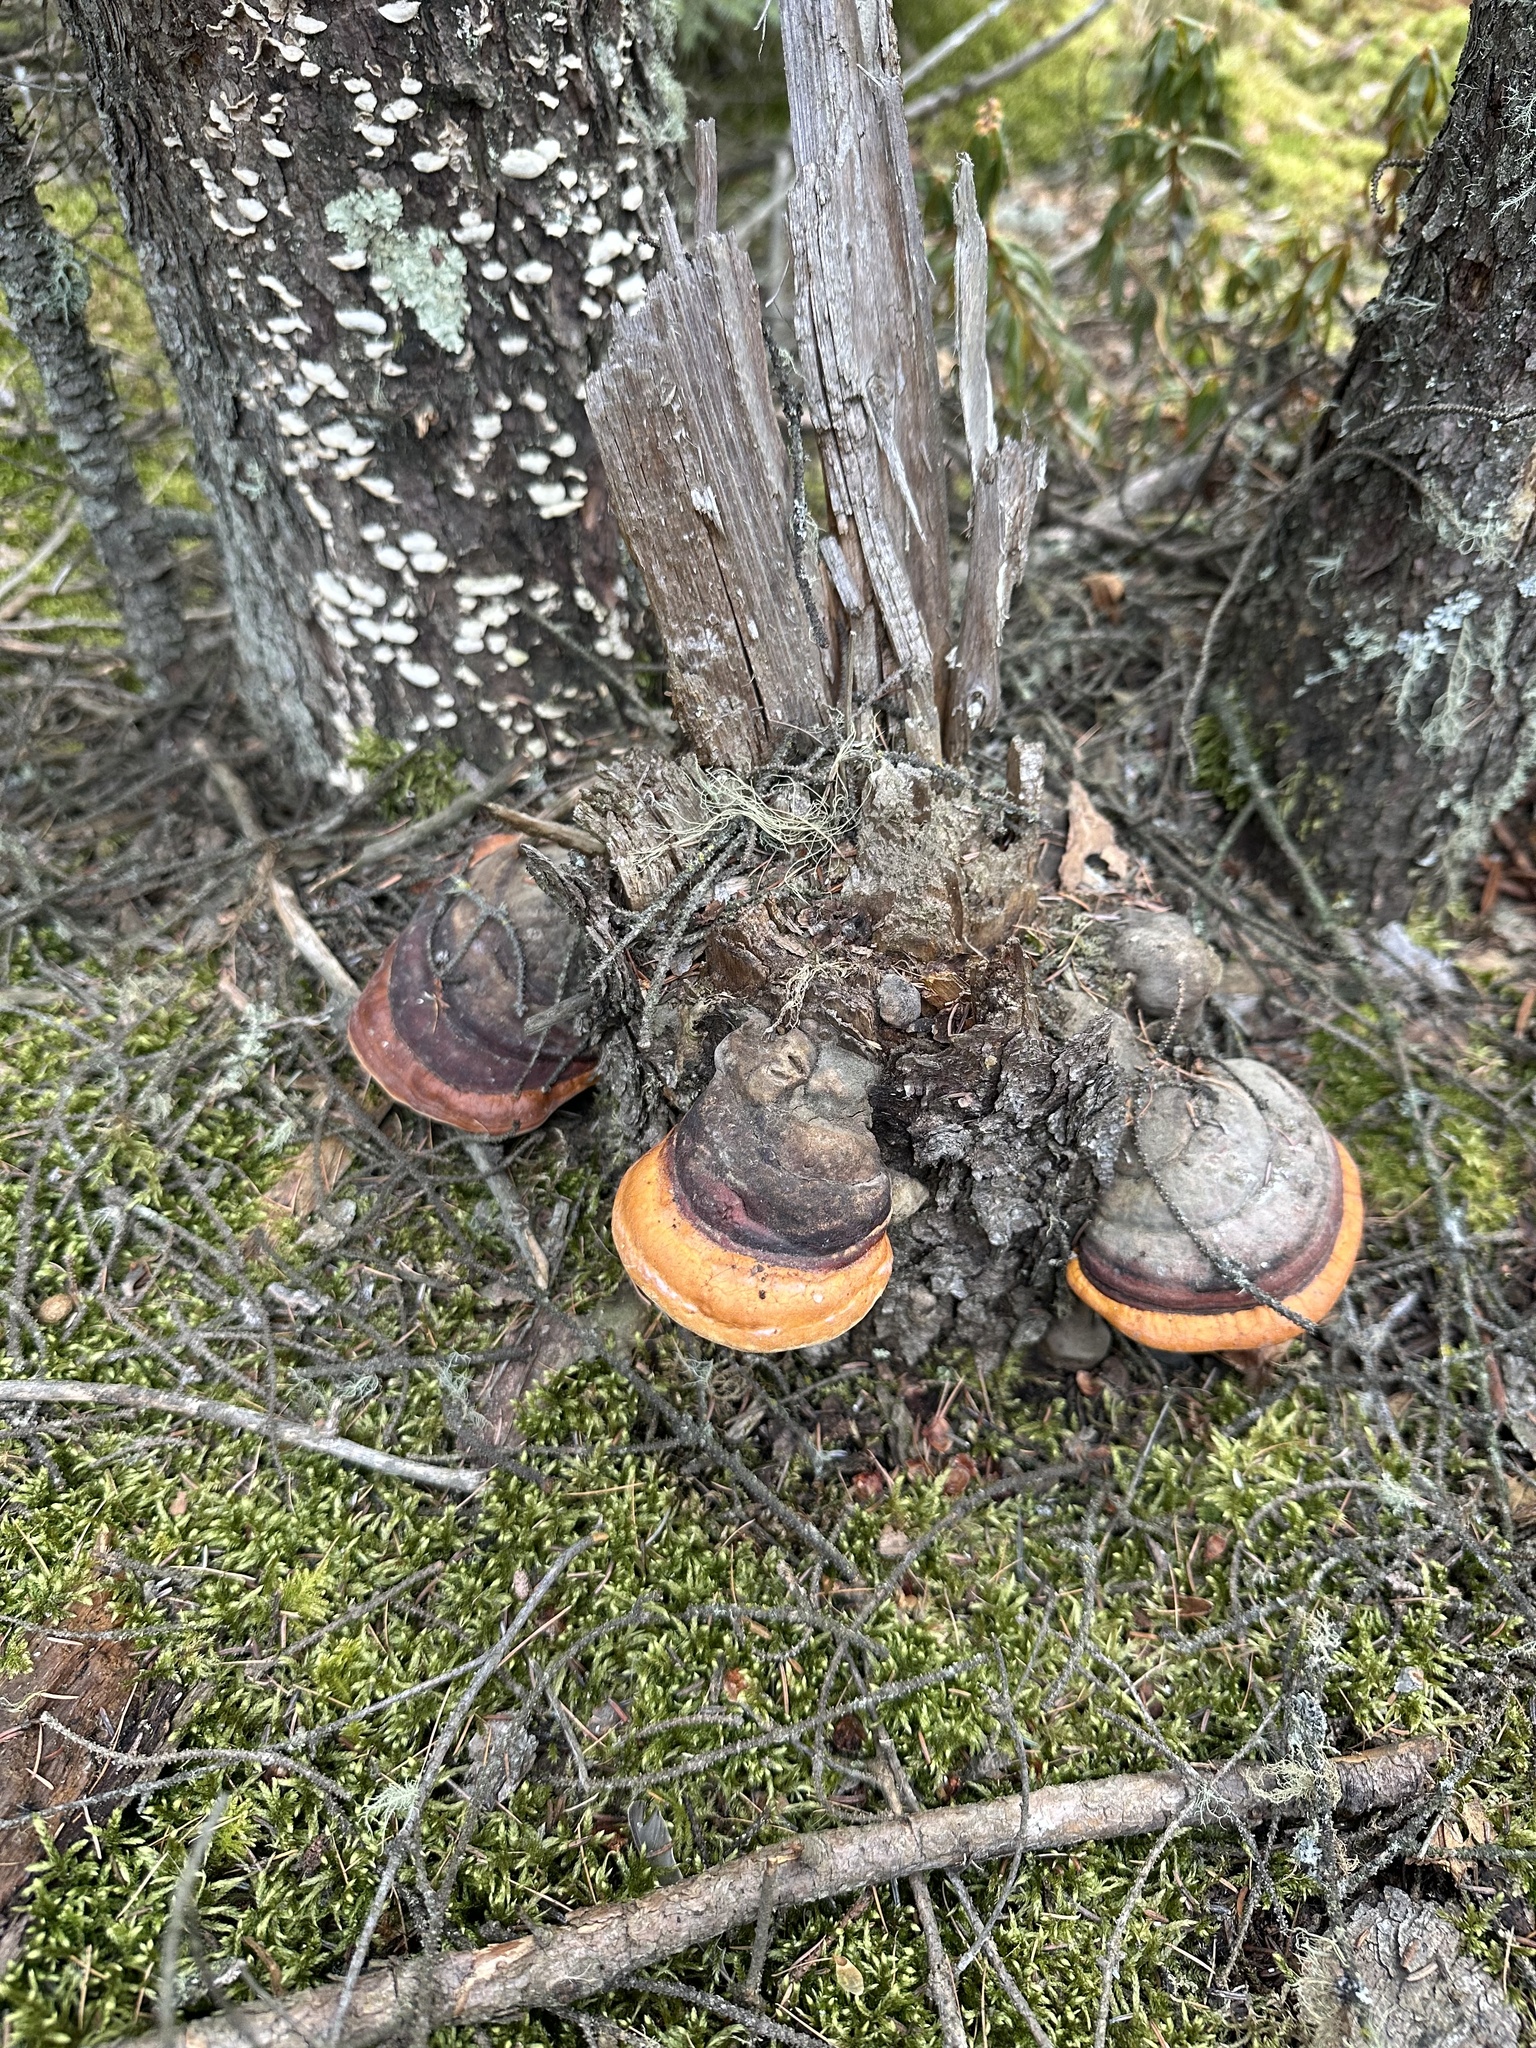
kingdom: Fungi
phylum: Basidiomycota
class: Agaricomycetes
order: Polyporales
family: Fomitopsidaceae
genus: Fomitopsis
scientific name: Fomitopsis mounceae
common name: Northern red belt
